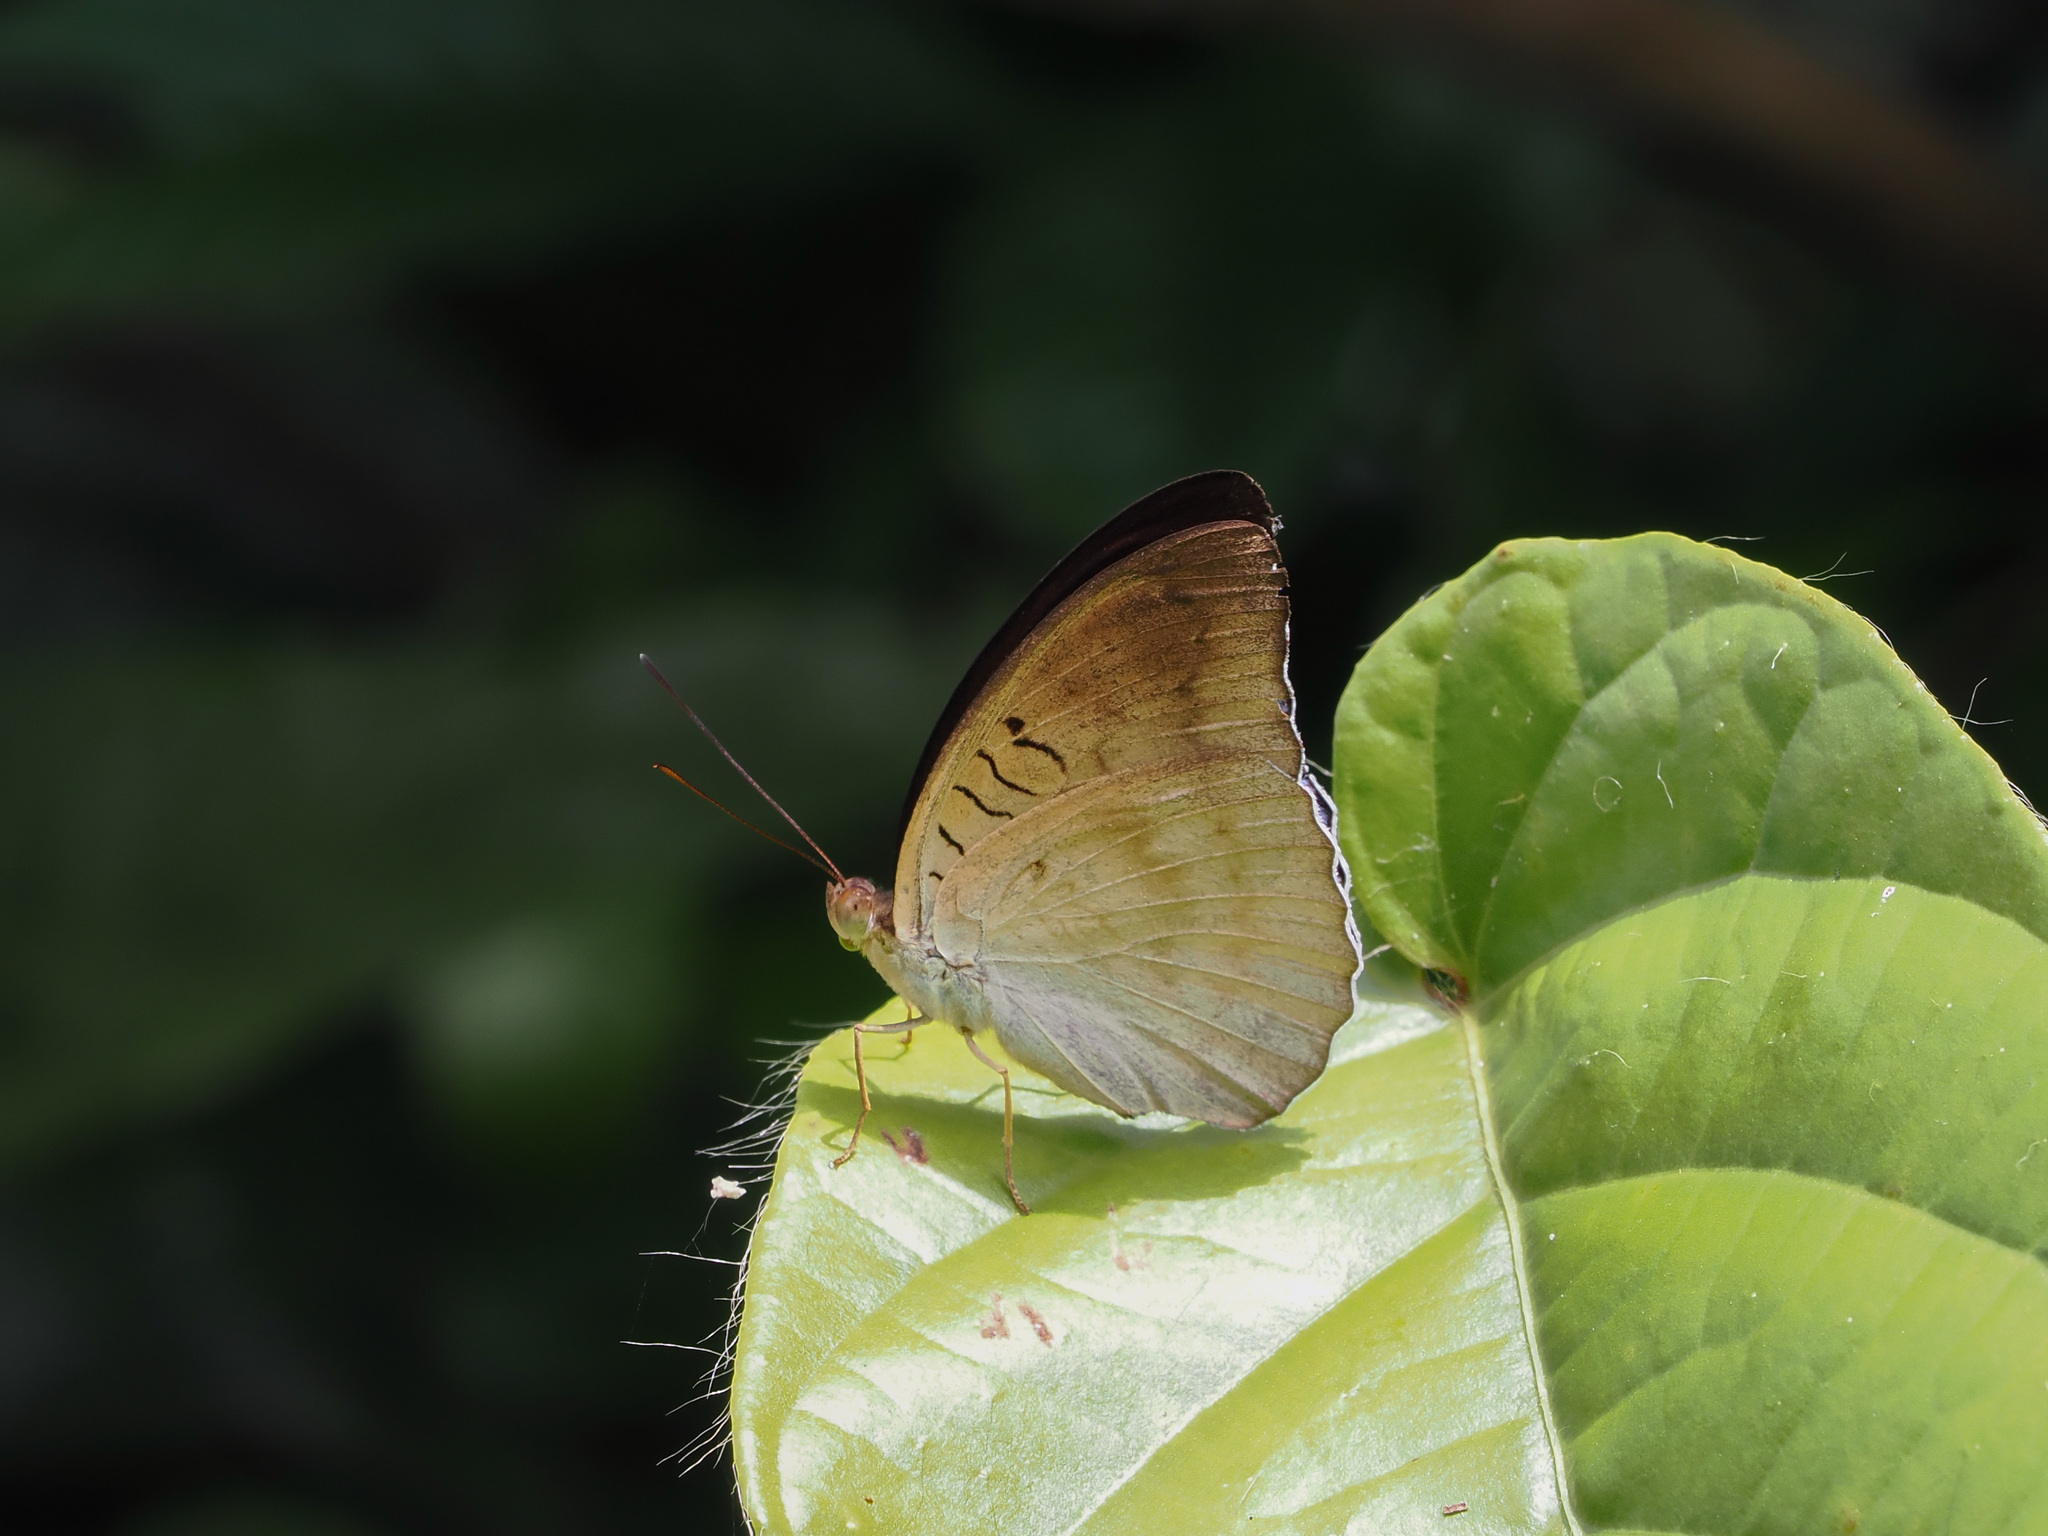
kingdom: Animalia
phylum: Arthropoda
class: Insecta
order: Lepidoptera
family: Nymphalidae
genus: Tanaecia
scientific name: Tanaecia iapis
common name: Horsfield's baron
